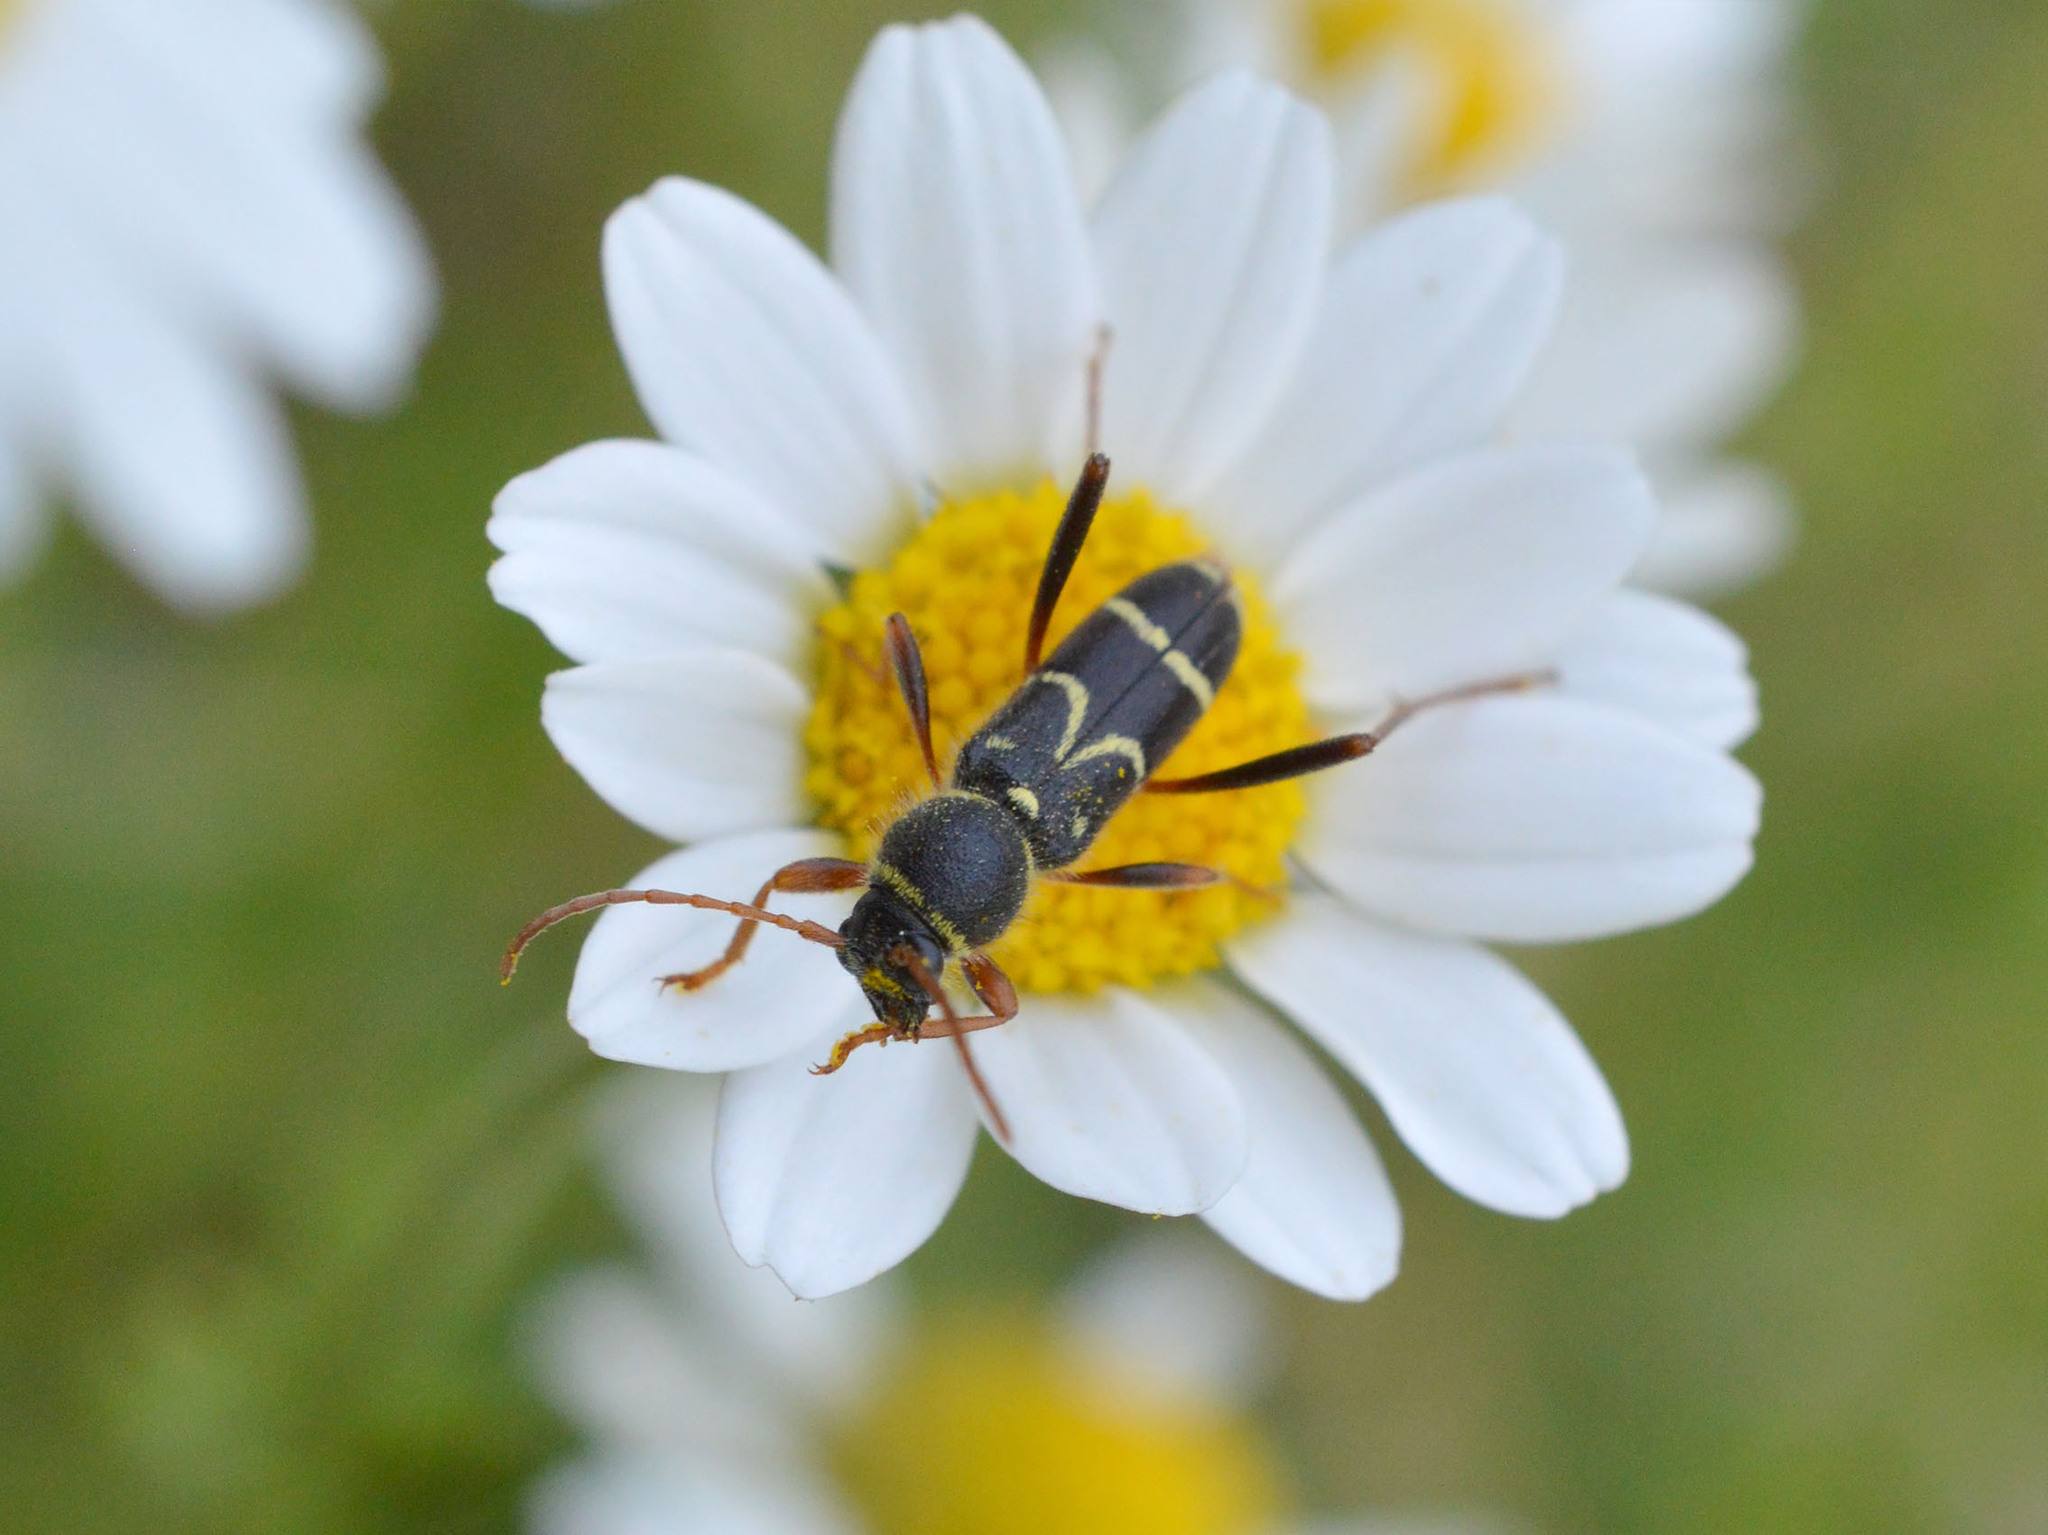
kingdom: Animalia
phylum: Arthropoda
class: Insecta
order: Coleoptera
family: Cerambycidae
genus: Clytus
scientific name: Clytus rhamni
